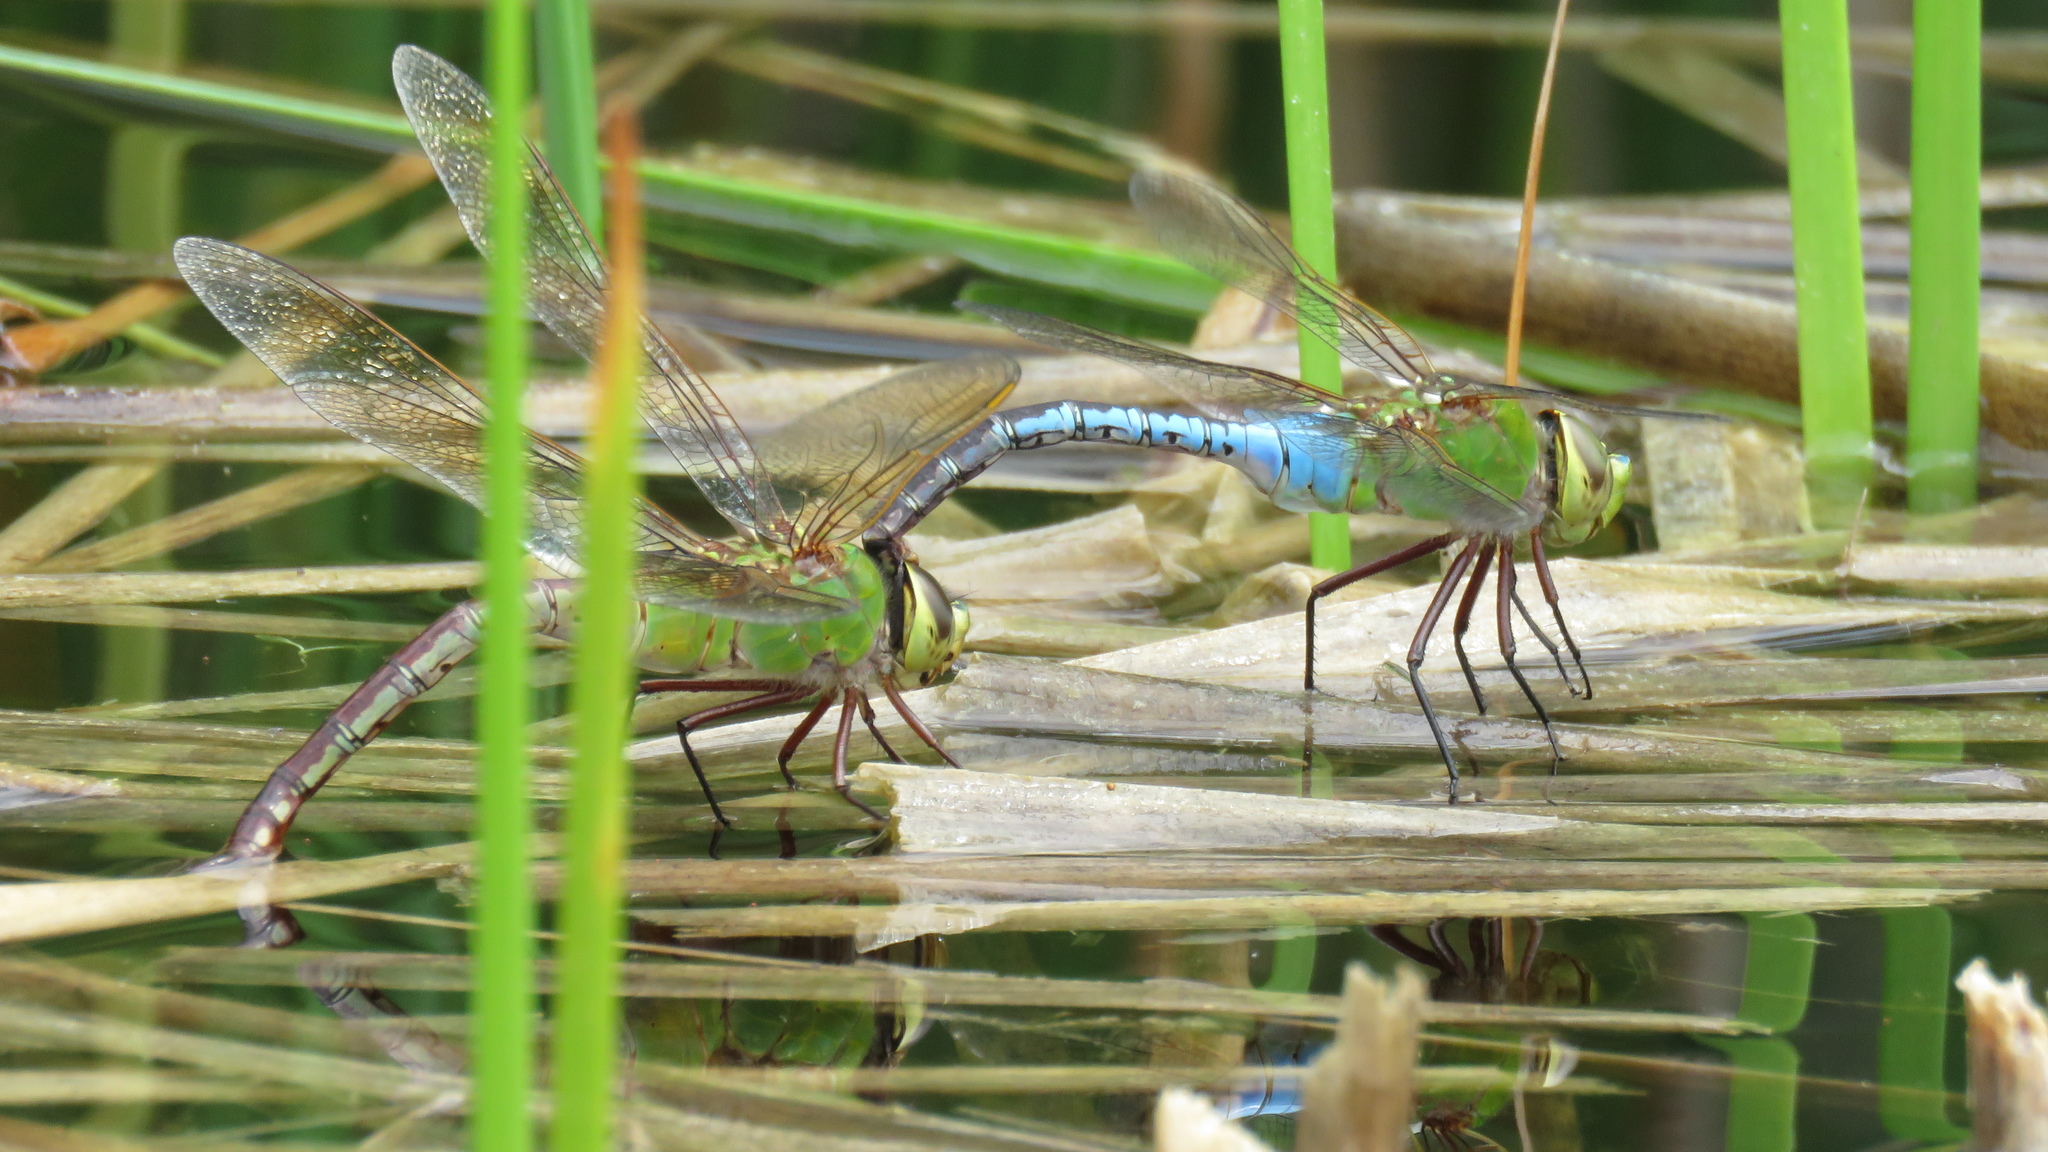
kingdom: Animalia
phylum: Arthropoda
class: Insecta
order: Odonata
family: Aeshnidae
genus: Anax
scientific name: Anax junius
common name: Common green darner
